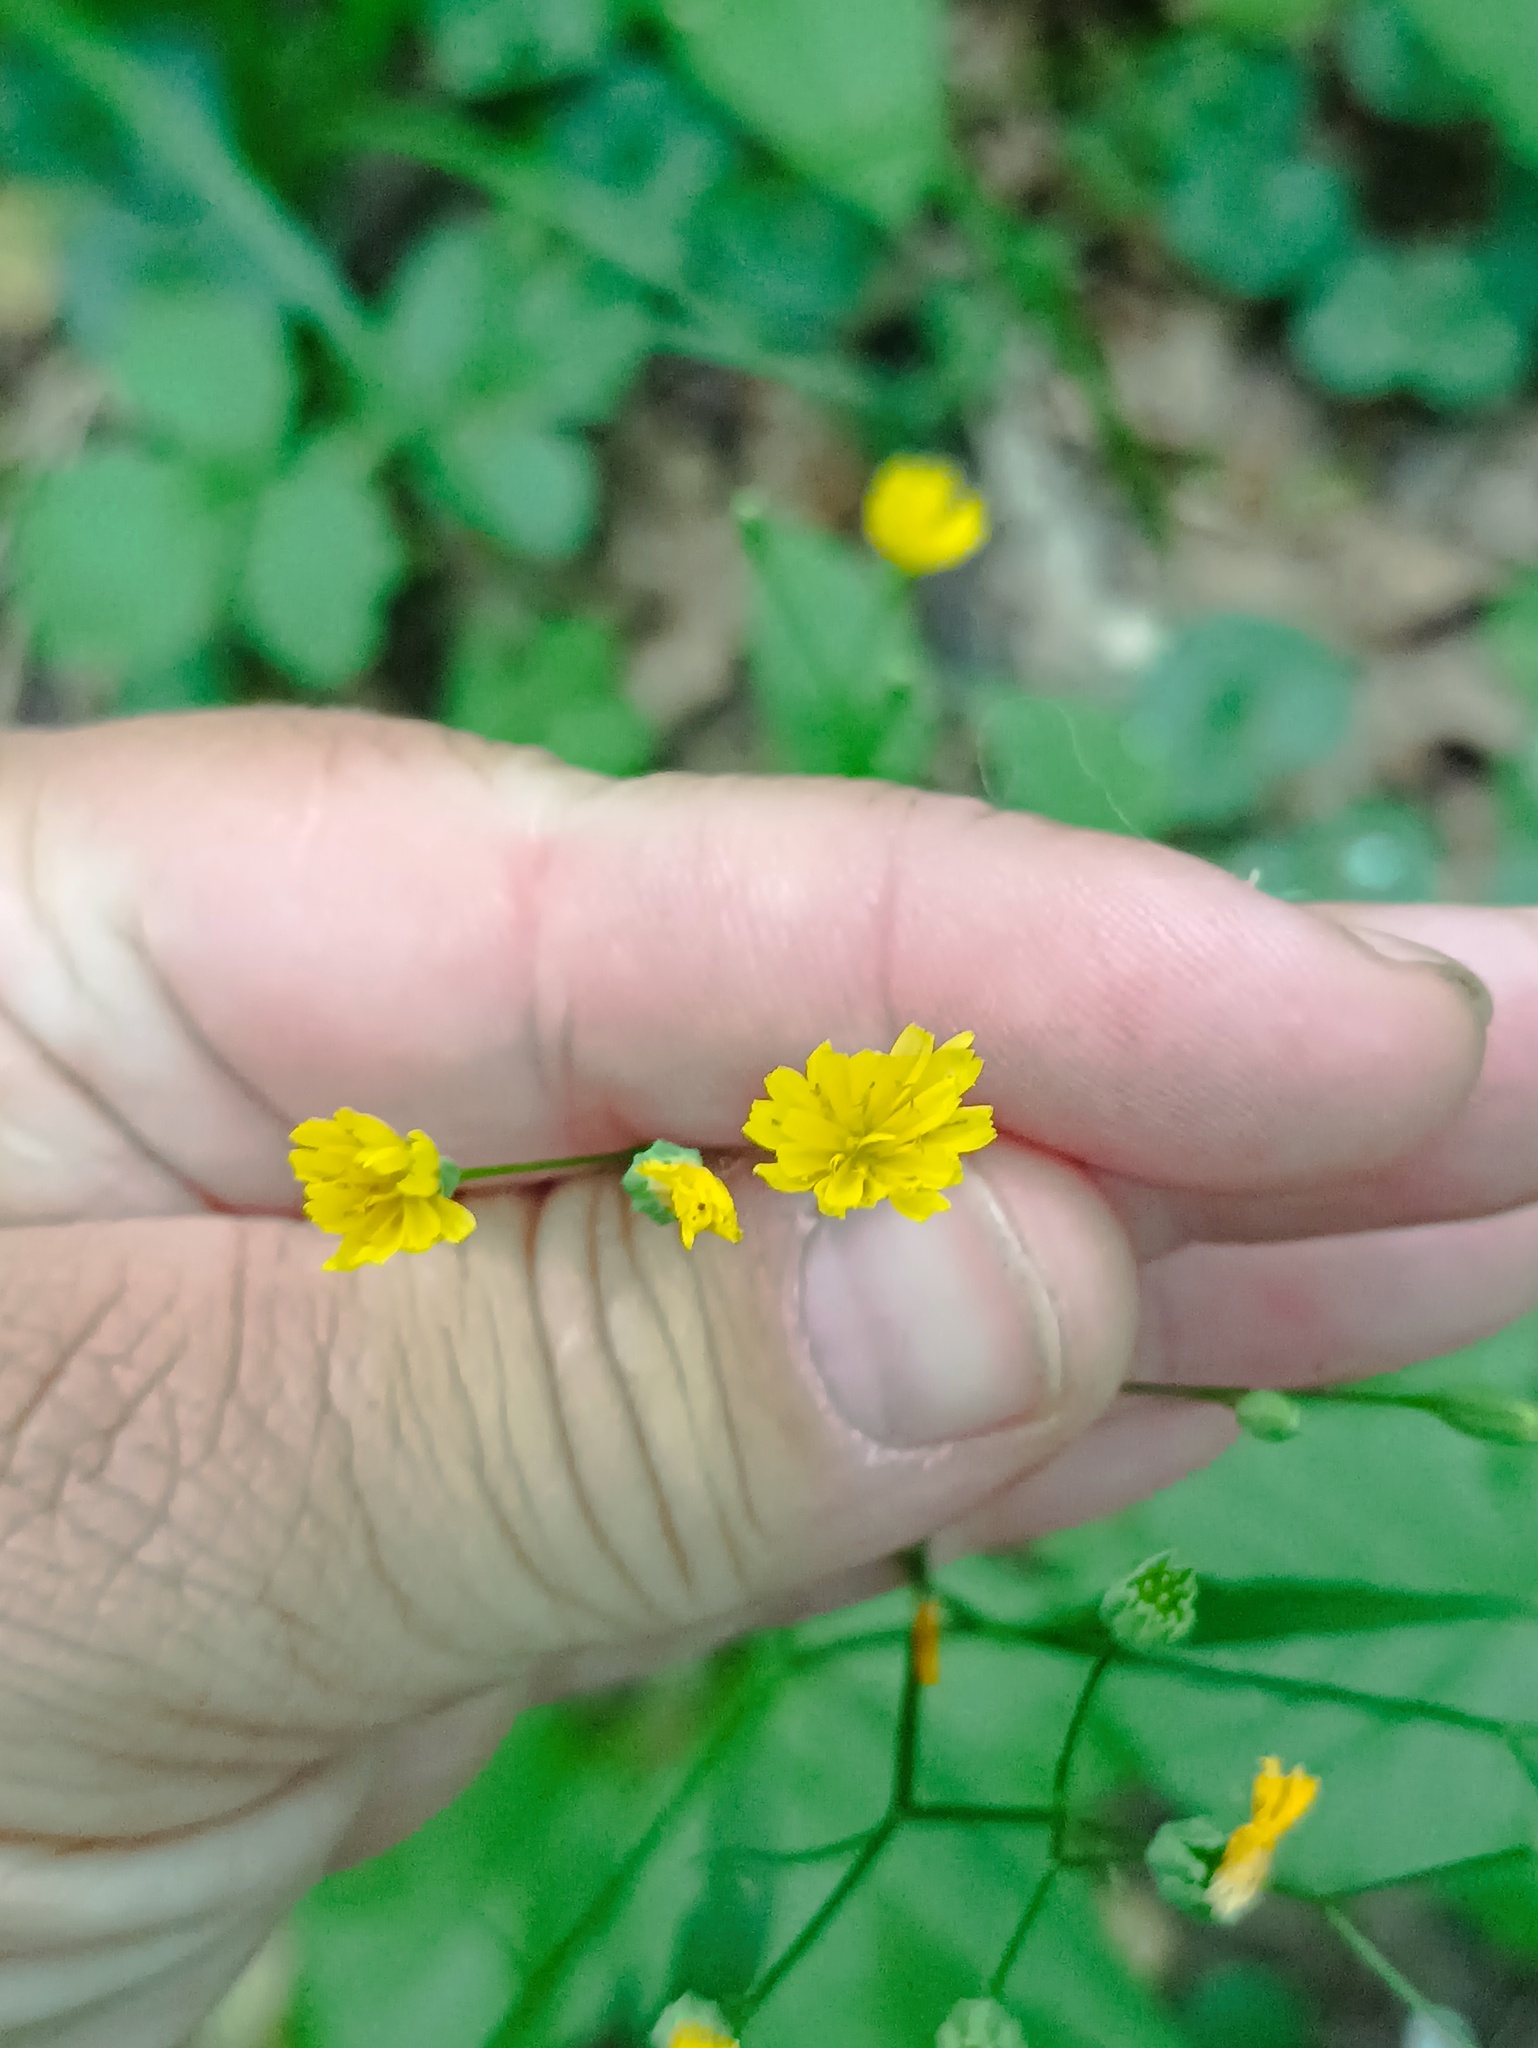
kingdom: Plantae
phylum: Tracheophyta
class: Magnoliopsida
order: Asterales
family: Asteraceae
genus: Lapsana
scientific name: Lapsana communis
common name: Nipplewort
